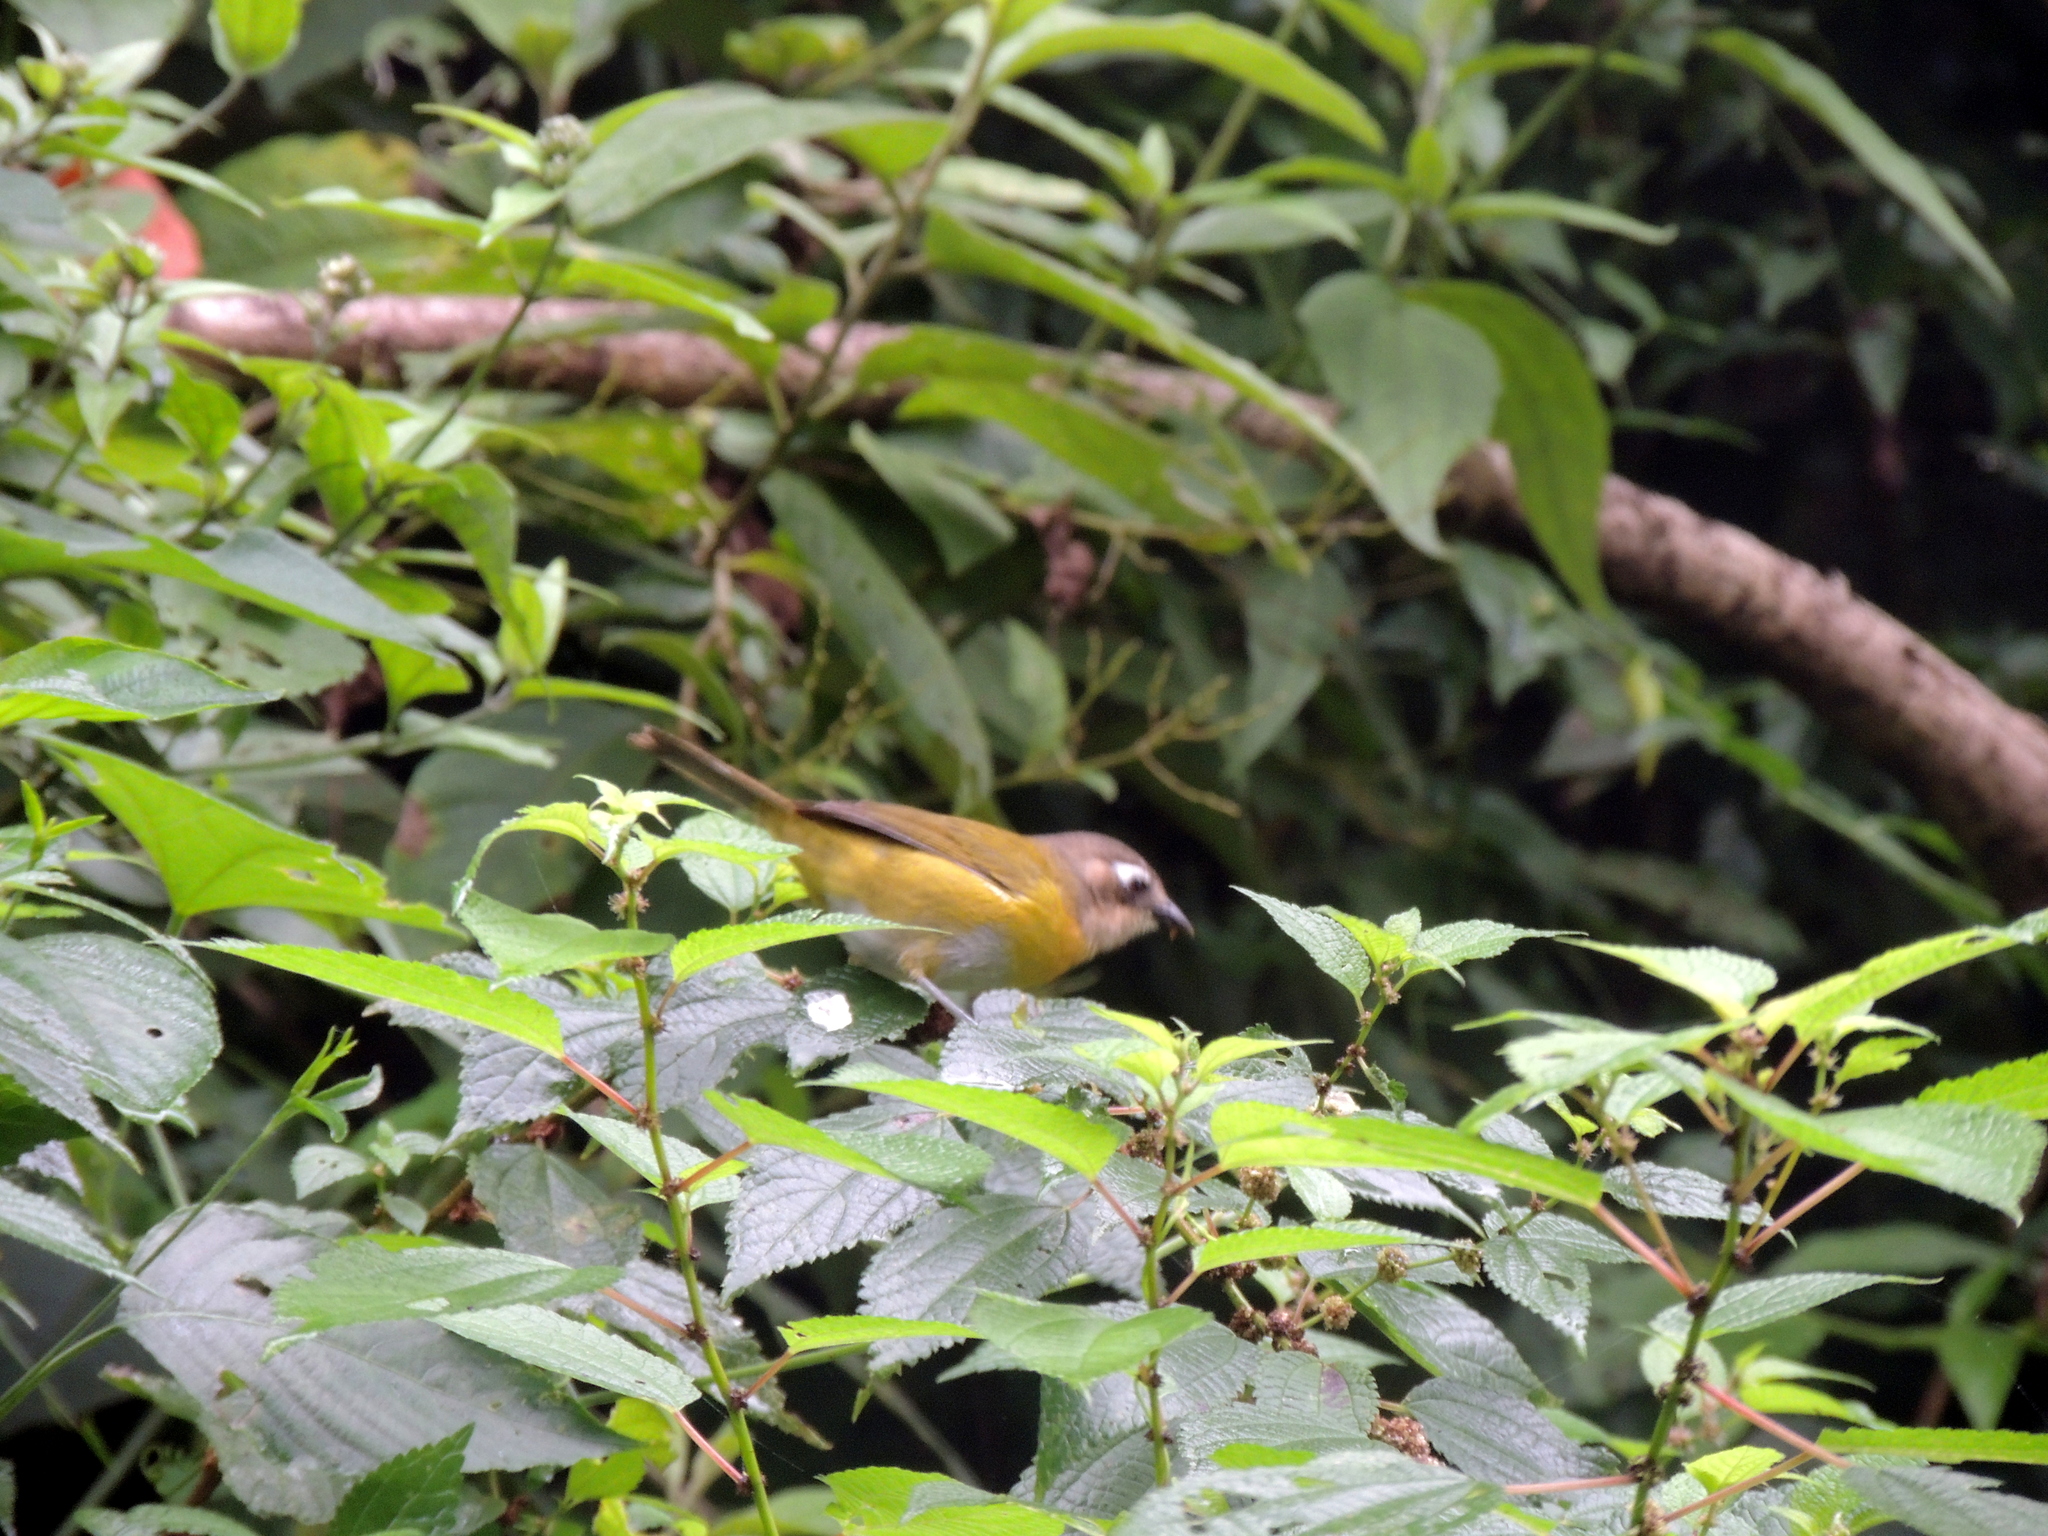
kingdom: Animalia
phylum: Chordata
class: Aves
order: Passeriformes
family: Passerellidae
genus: Chlorospingus
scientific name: Chlorospingus flavopectus
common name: Common chlorospingus
